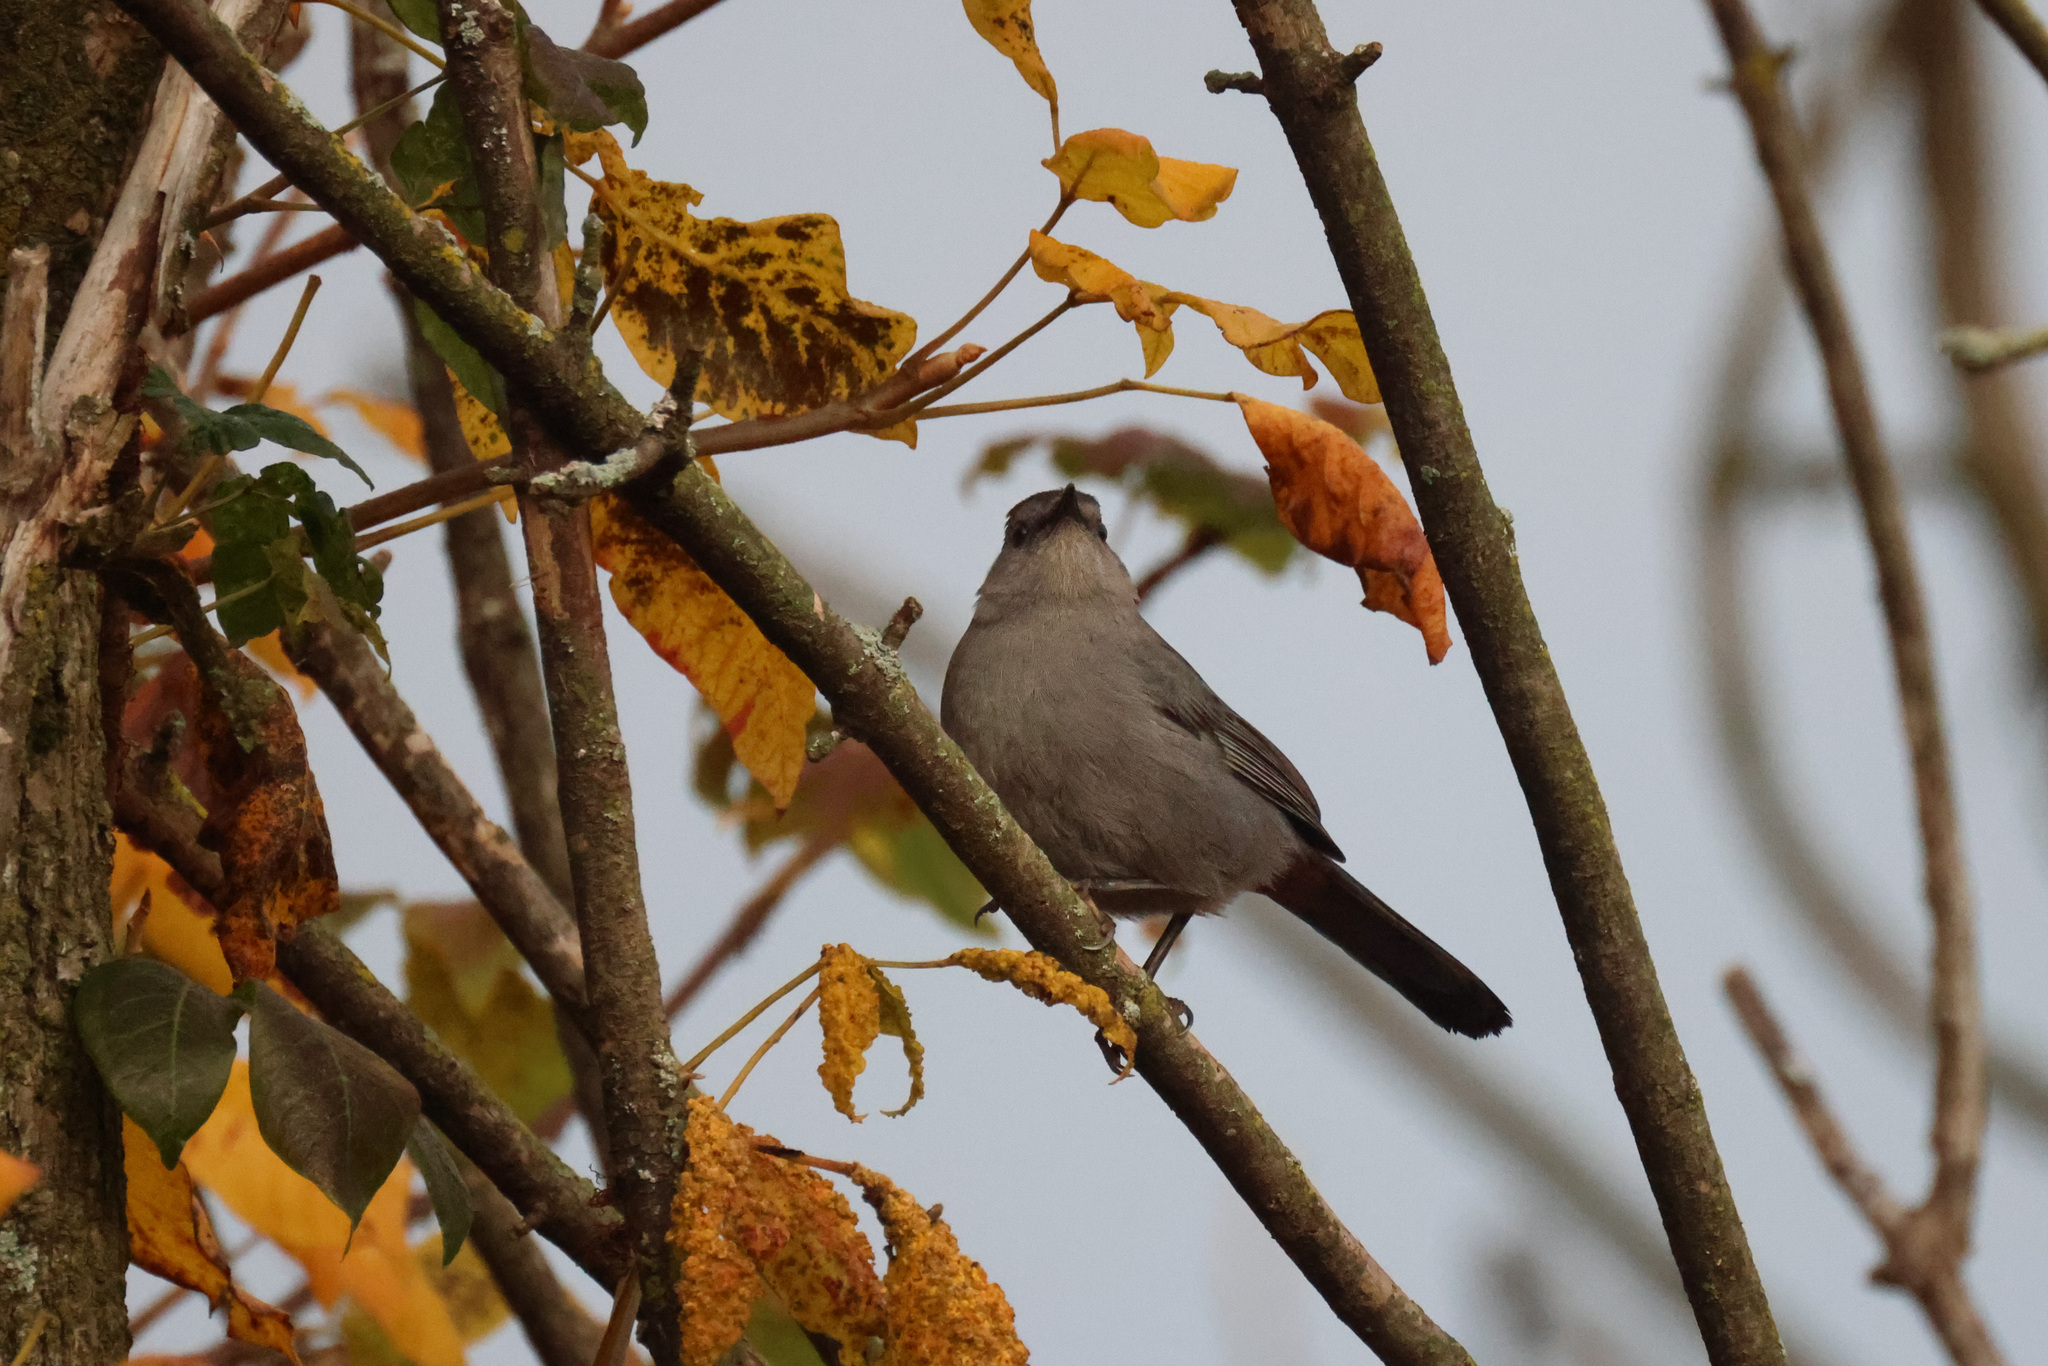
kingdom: Animalia
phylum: Chordata
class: Aves
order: Passeriformes
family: Mimidae
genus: Dumetella
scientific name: Dumetella carolinensis
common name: Gray catbird
